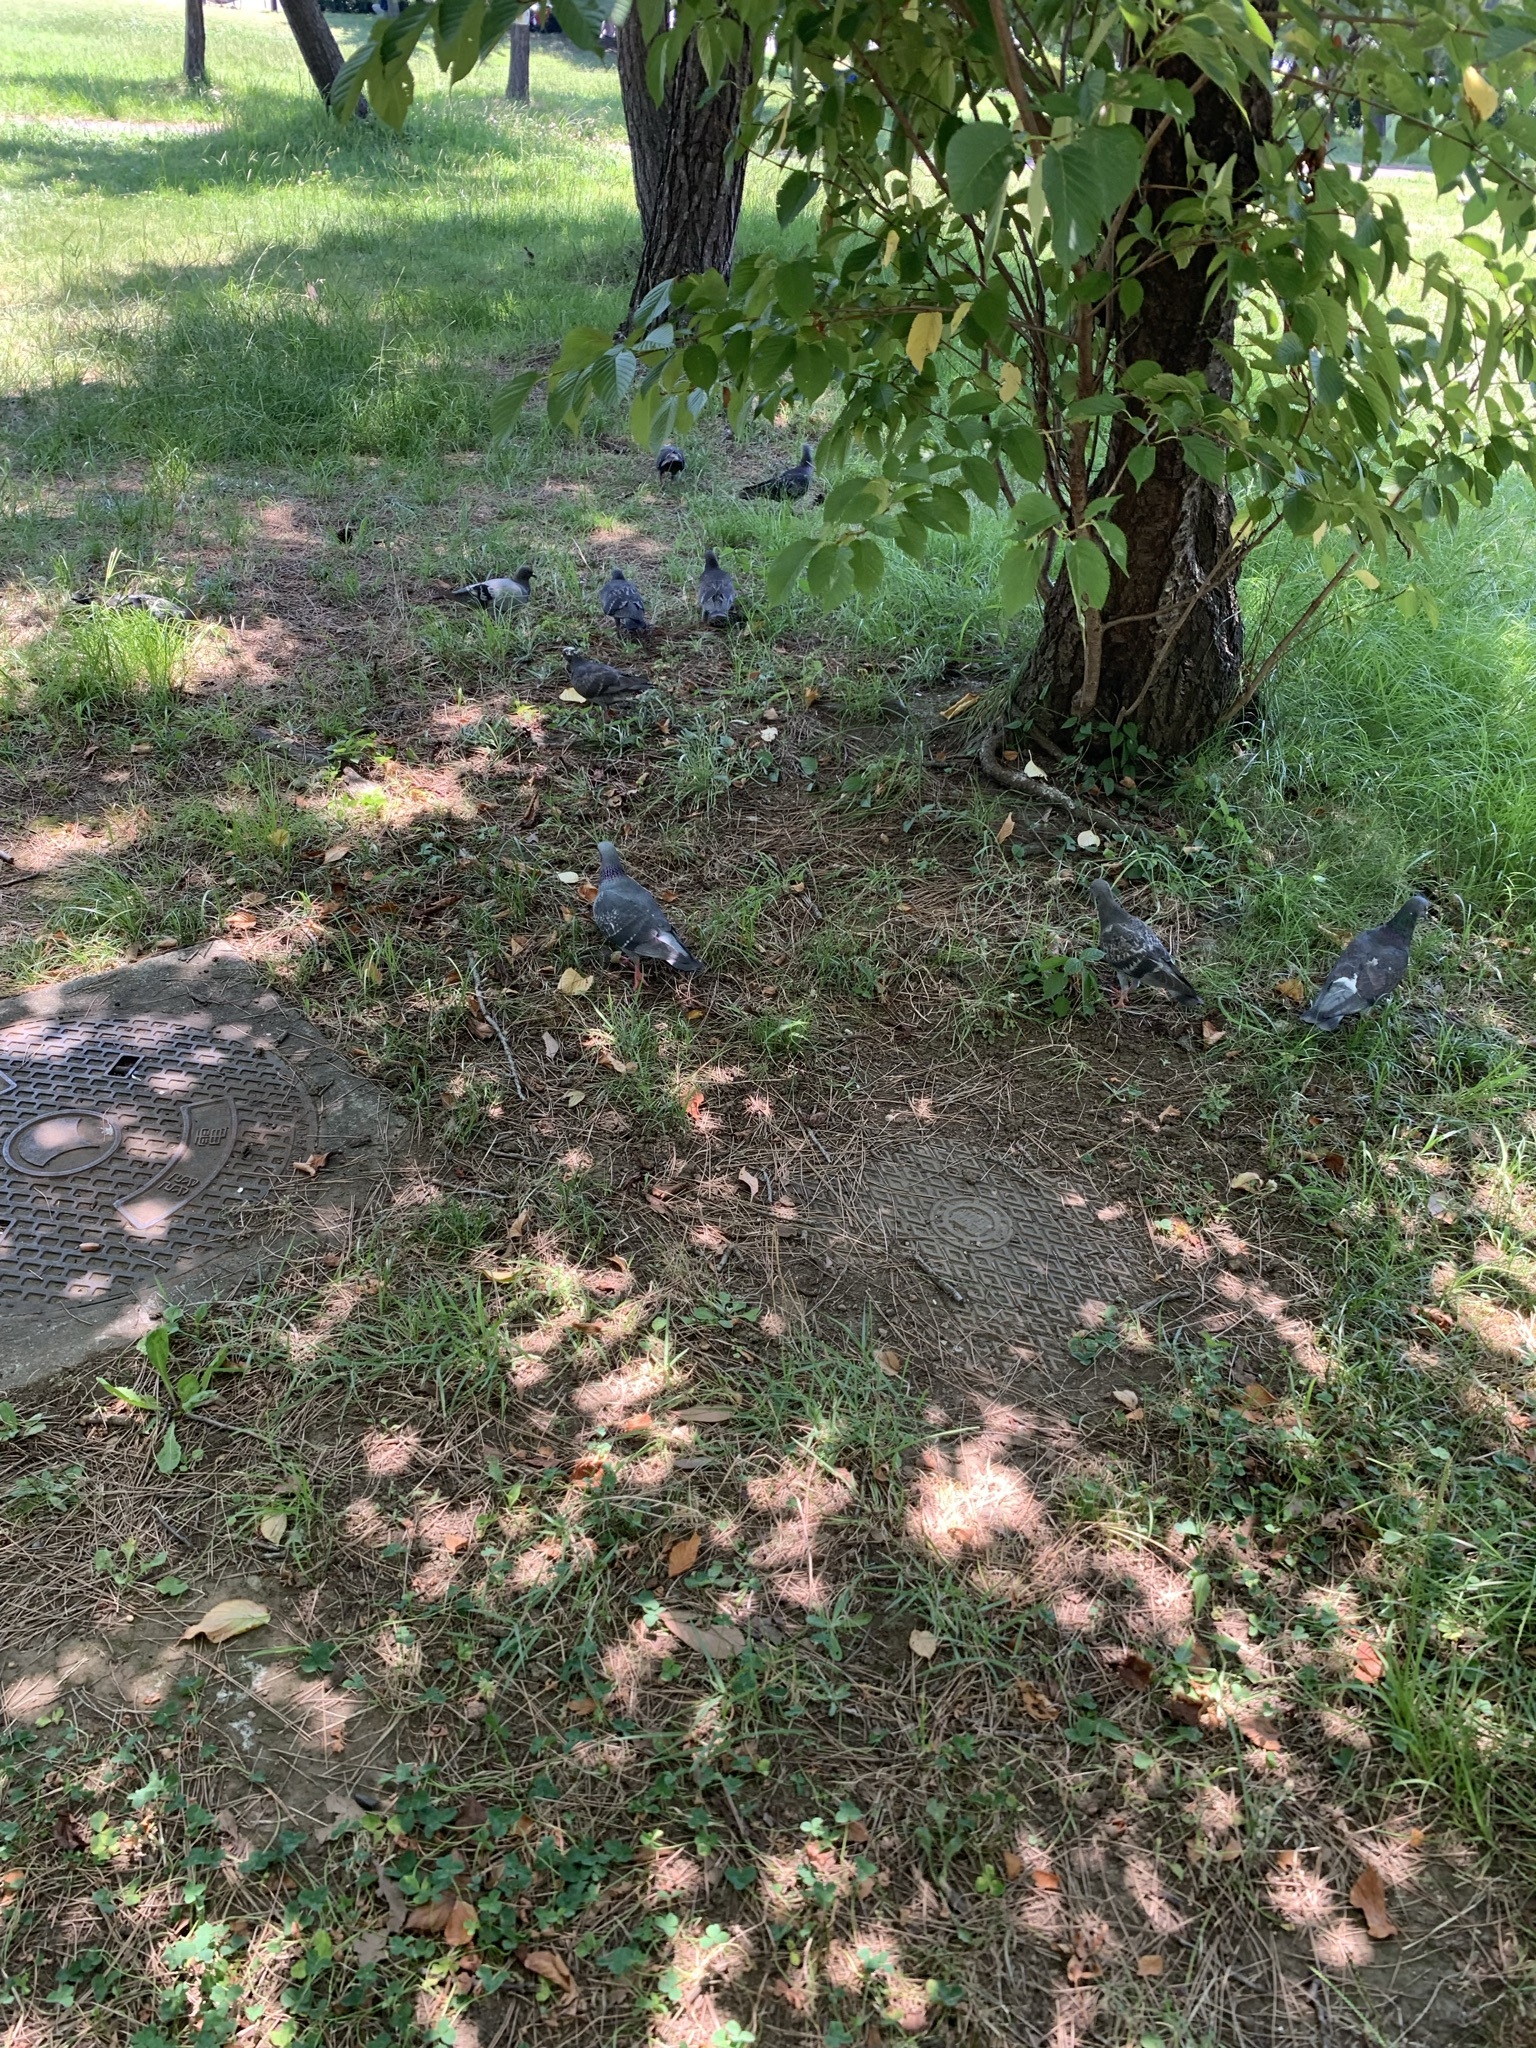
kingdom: Animalia
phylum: Chordata
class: Aves
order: Columbiformes
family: Columbidae
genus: Columba
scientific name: Columba livia
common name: Rock pigeon
